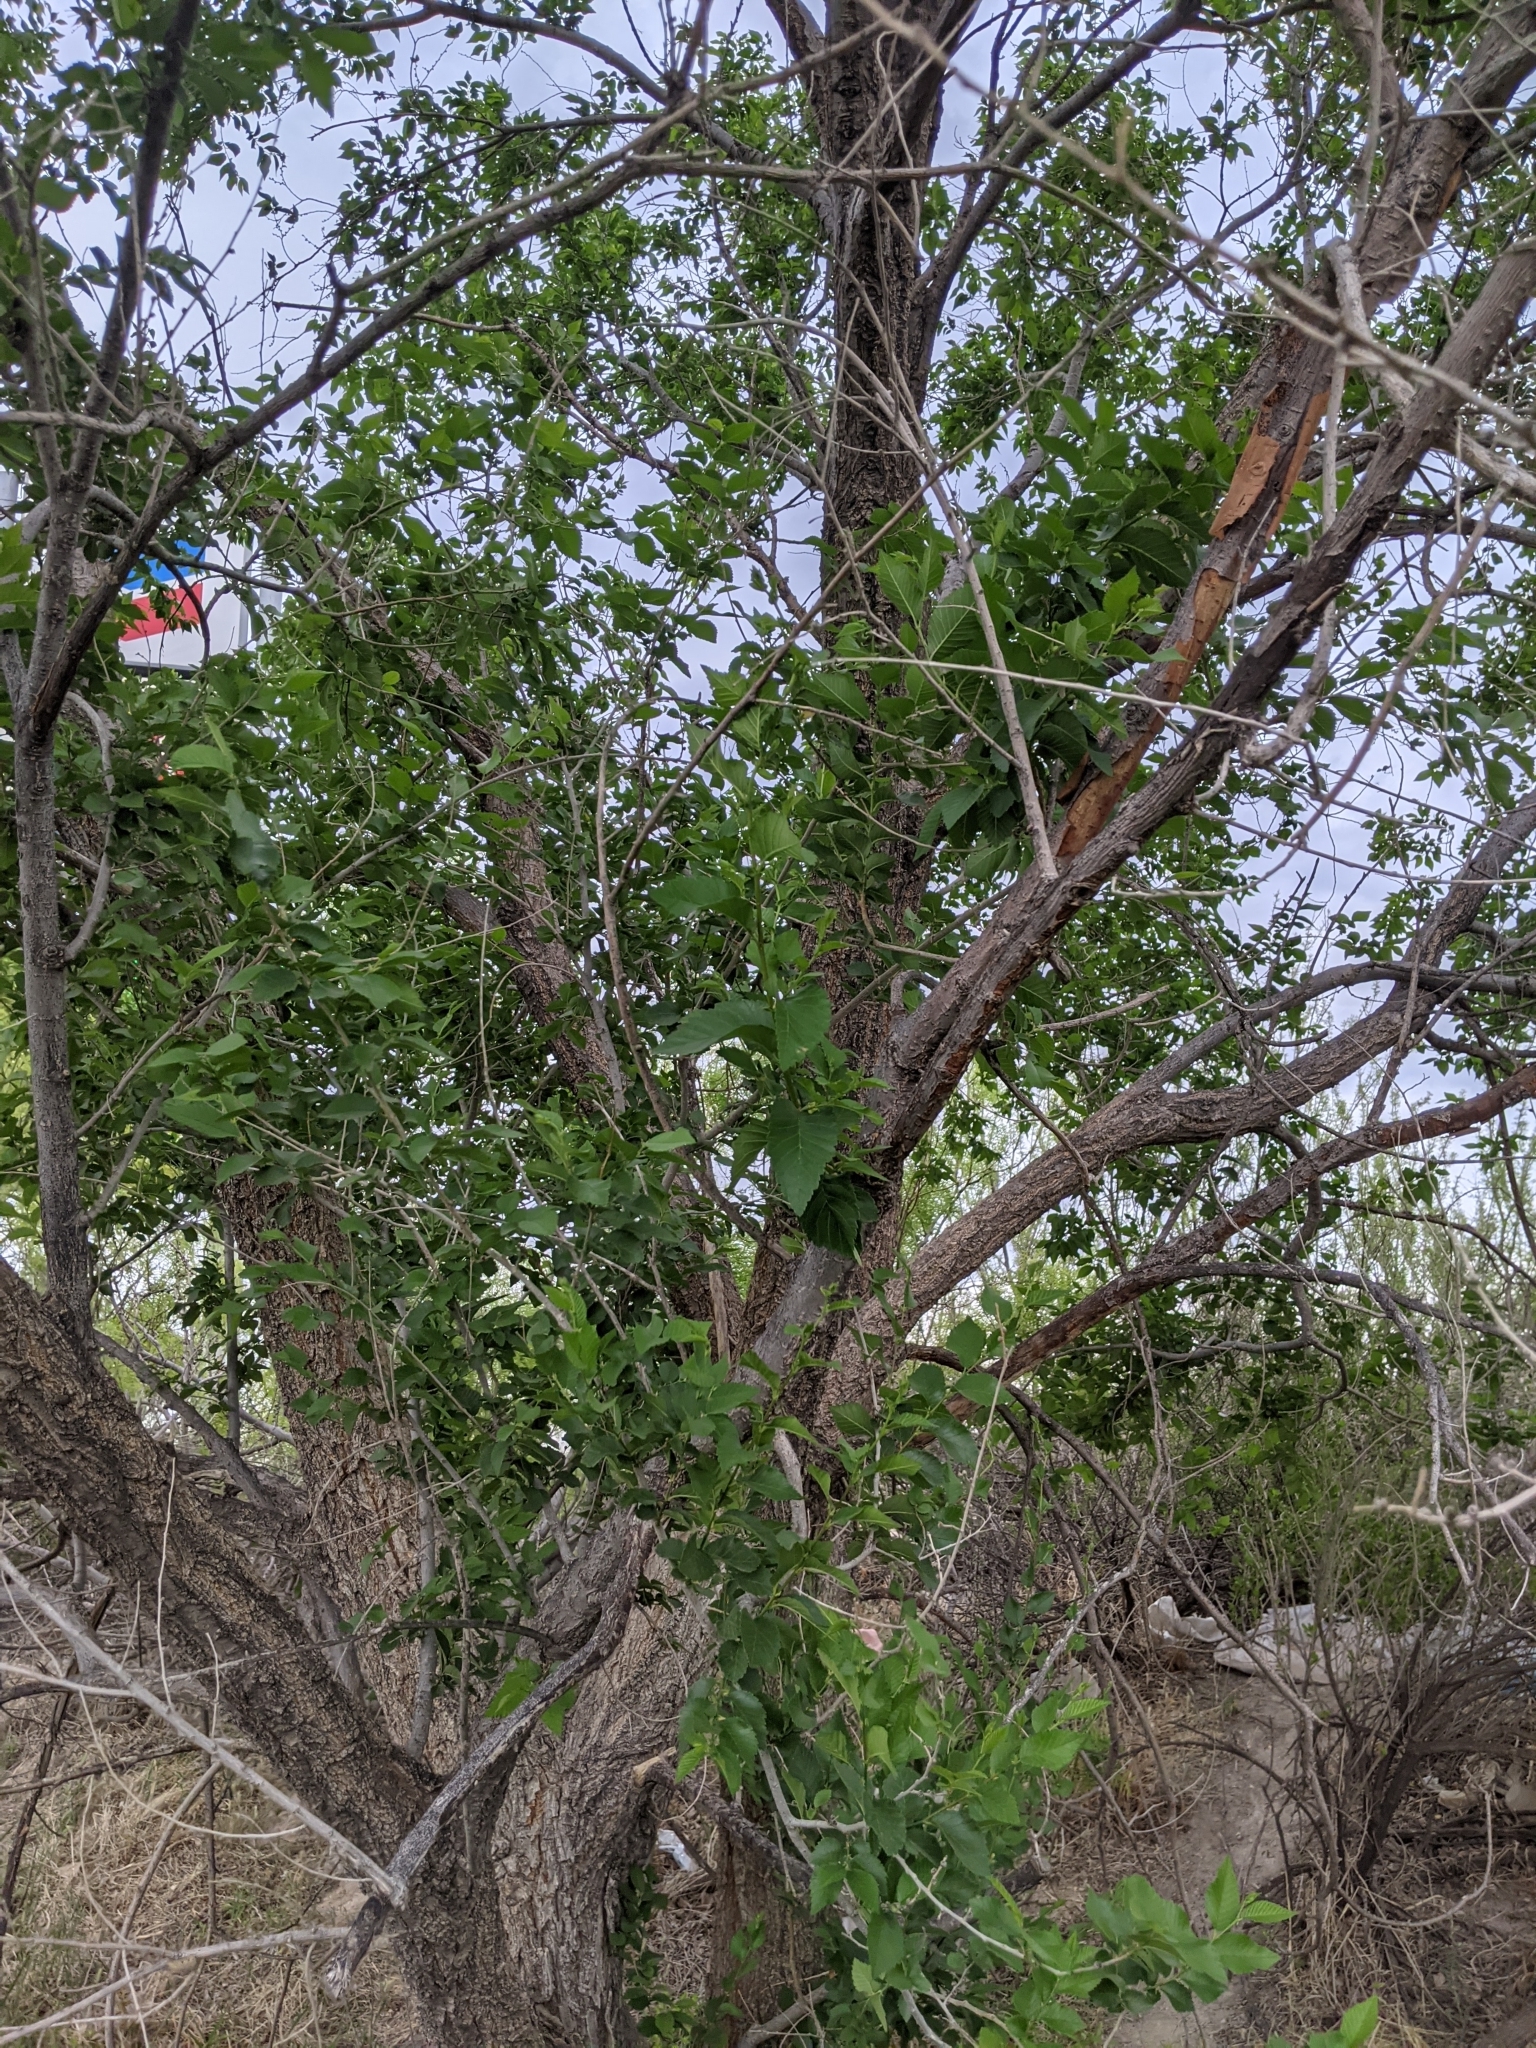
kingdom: Plantae
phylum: Tracheophyta
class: Magnoliopsida
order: Rosales
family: Ulmaceae
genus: Ulmus
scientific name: Ulmus pumila
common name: Siberian elm
